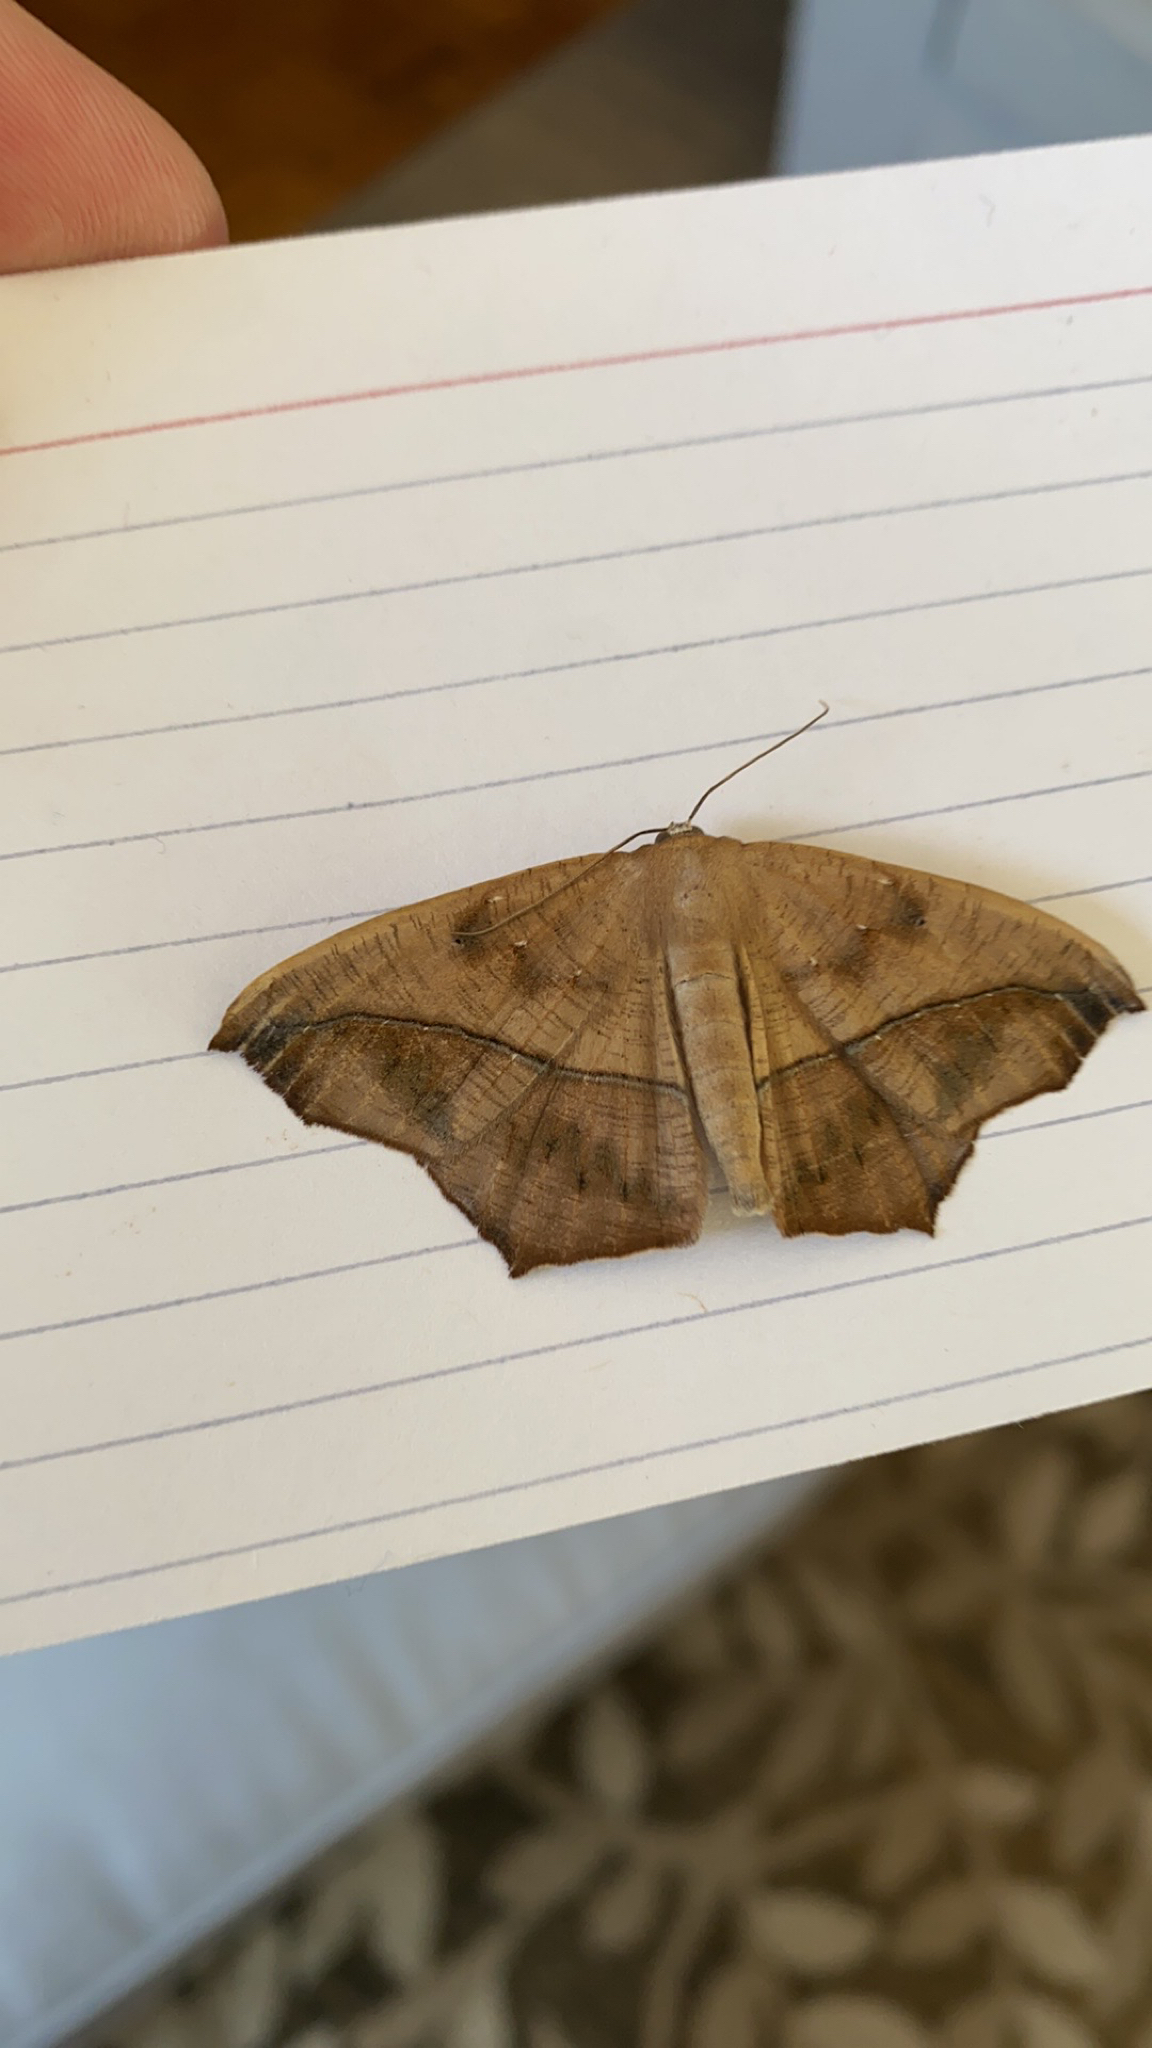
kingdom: Animalia
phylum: Arthropoda
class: Insecta
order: Lepidoptera
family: Geometridae
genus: Prochoerodes
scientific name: Prochoerodes lineola
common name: Large maple spanworm
